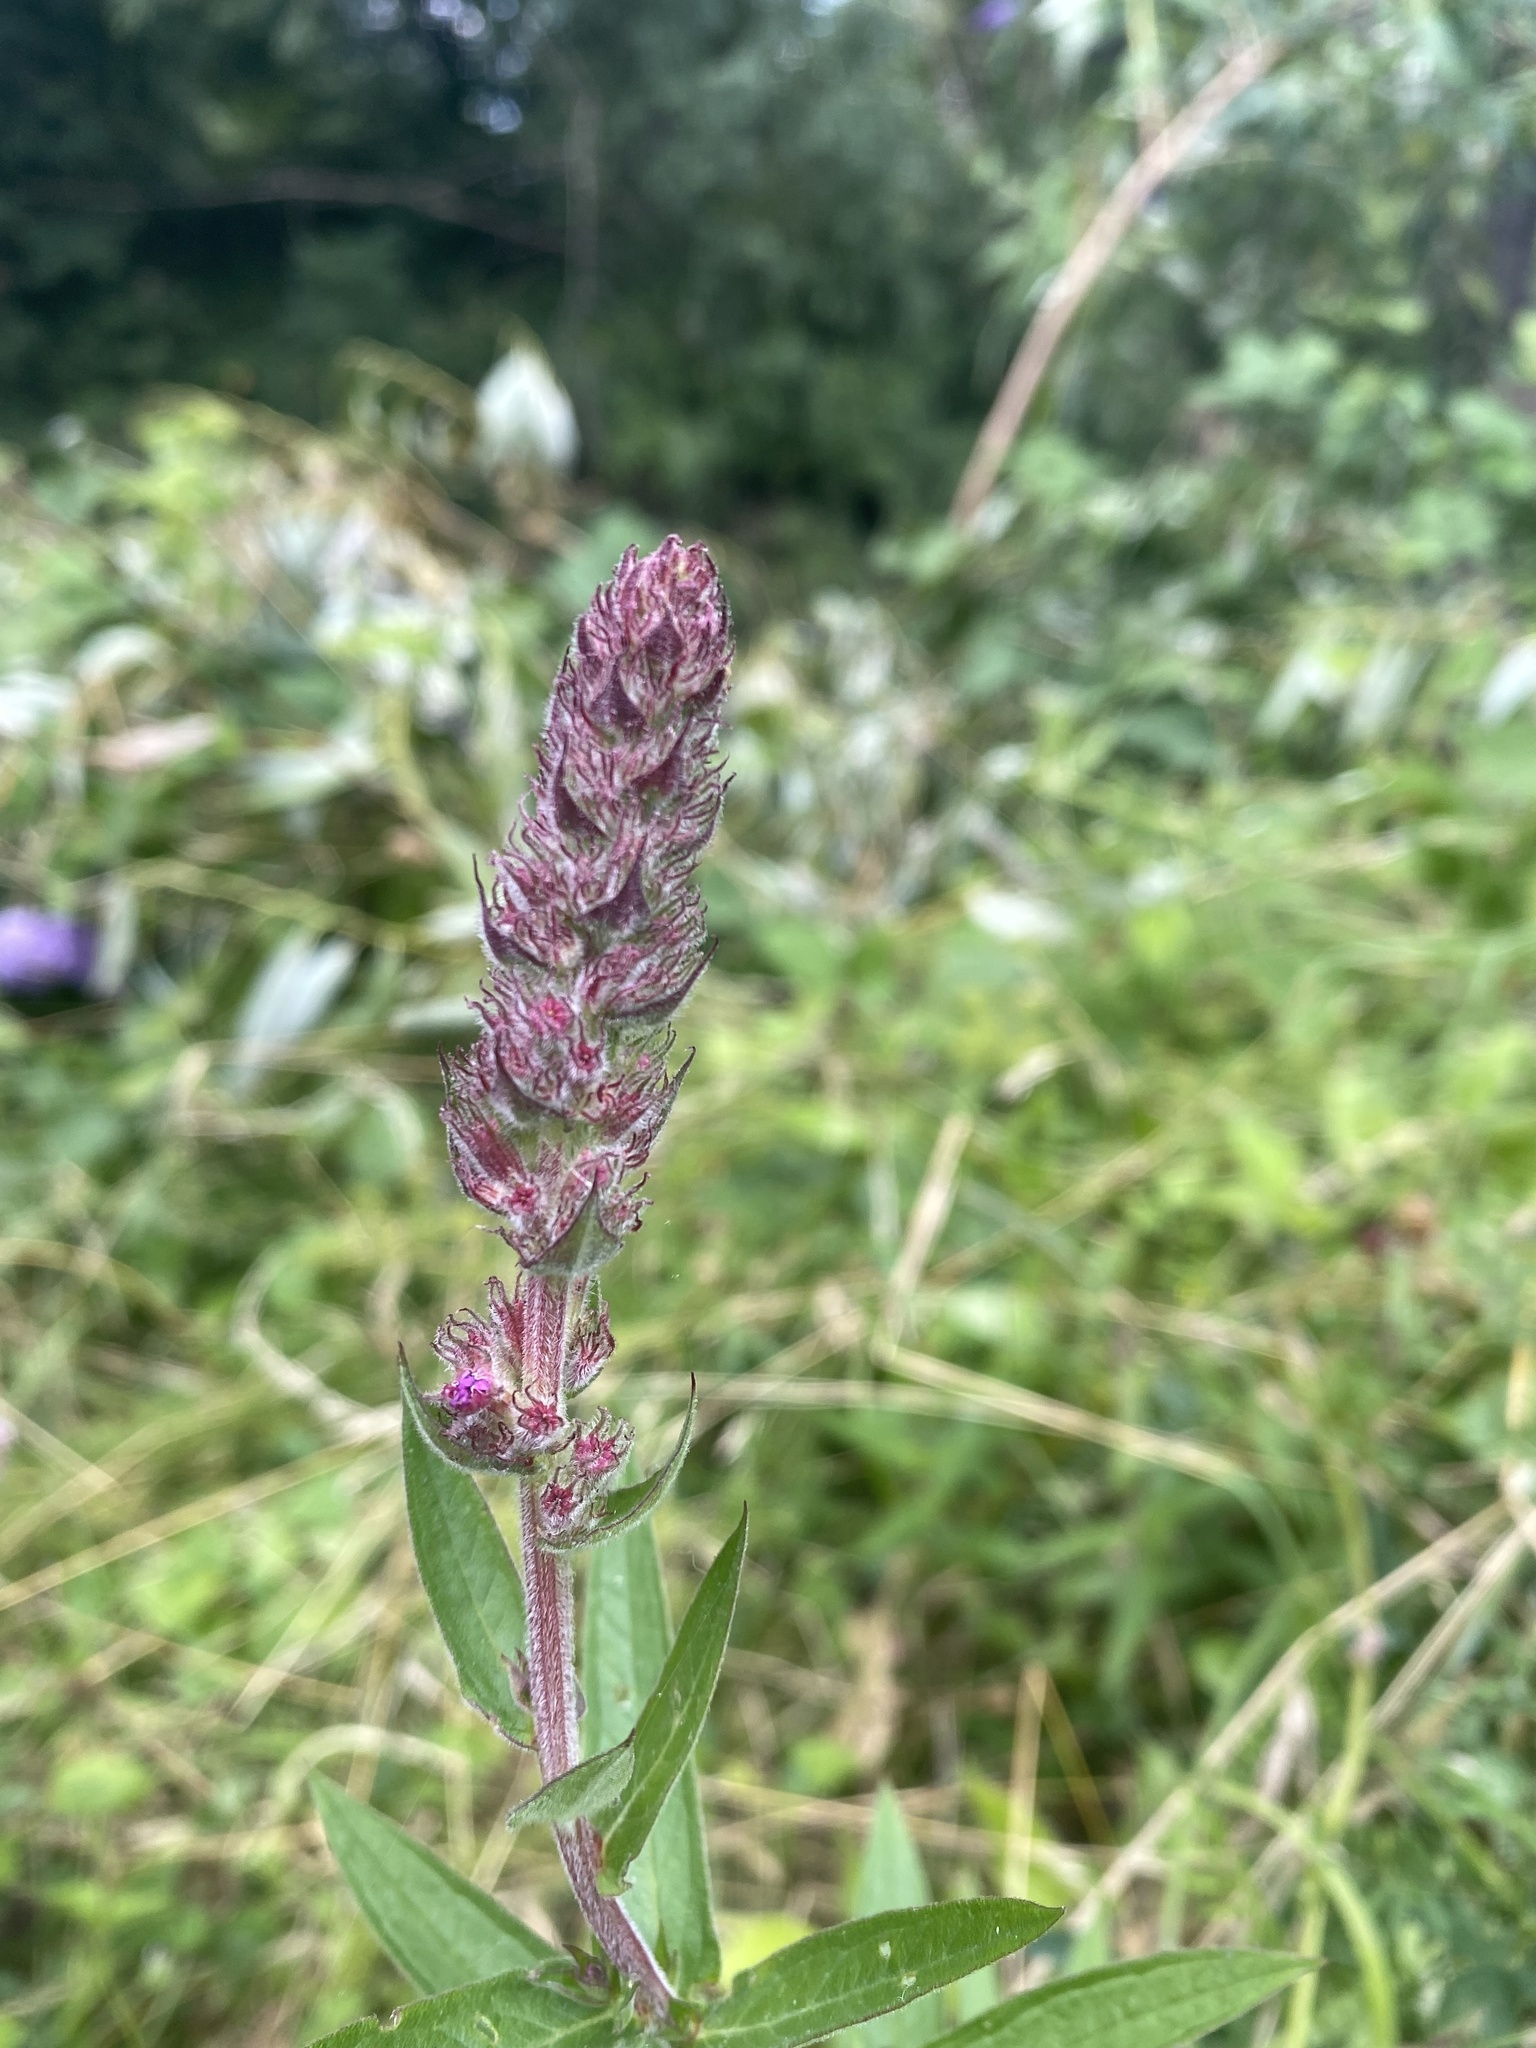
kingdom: Plantae
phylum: Tracheophyta
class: Magnoliopsida
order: Myrtales
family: Lythraceae
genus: Lythrum
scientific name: Lythrum salicaria
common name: Purple loosestrife
